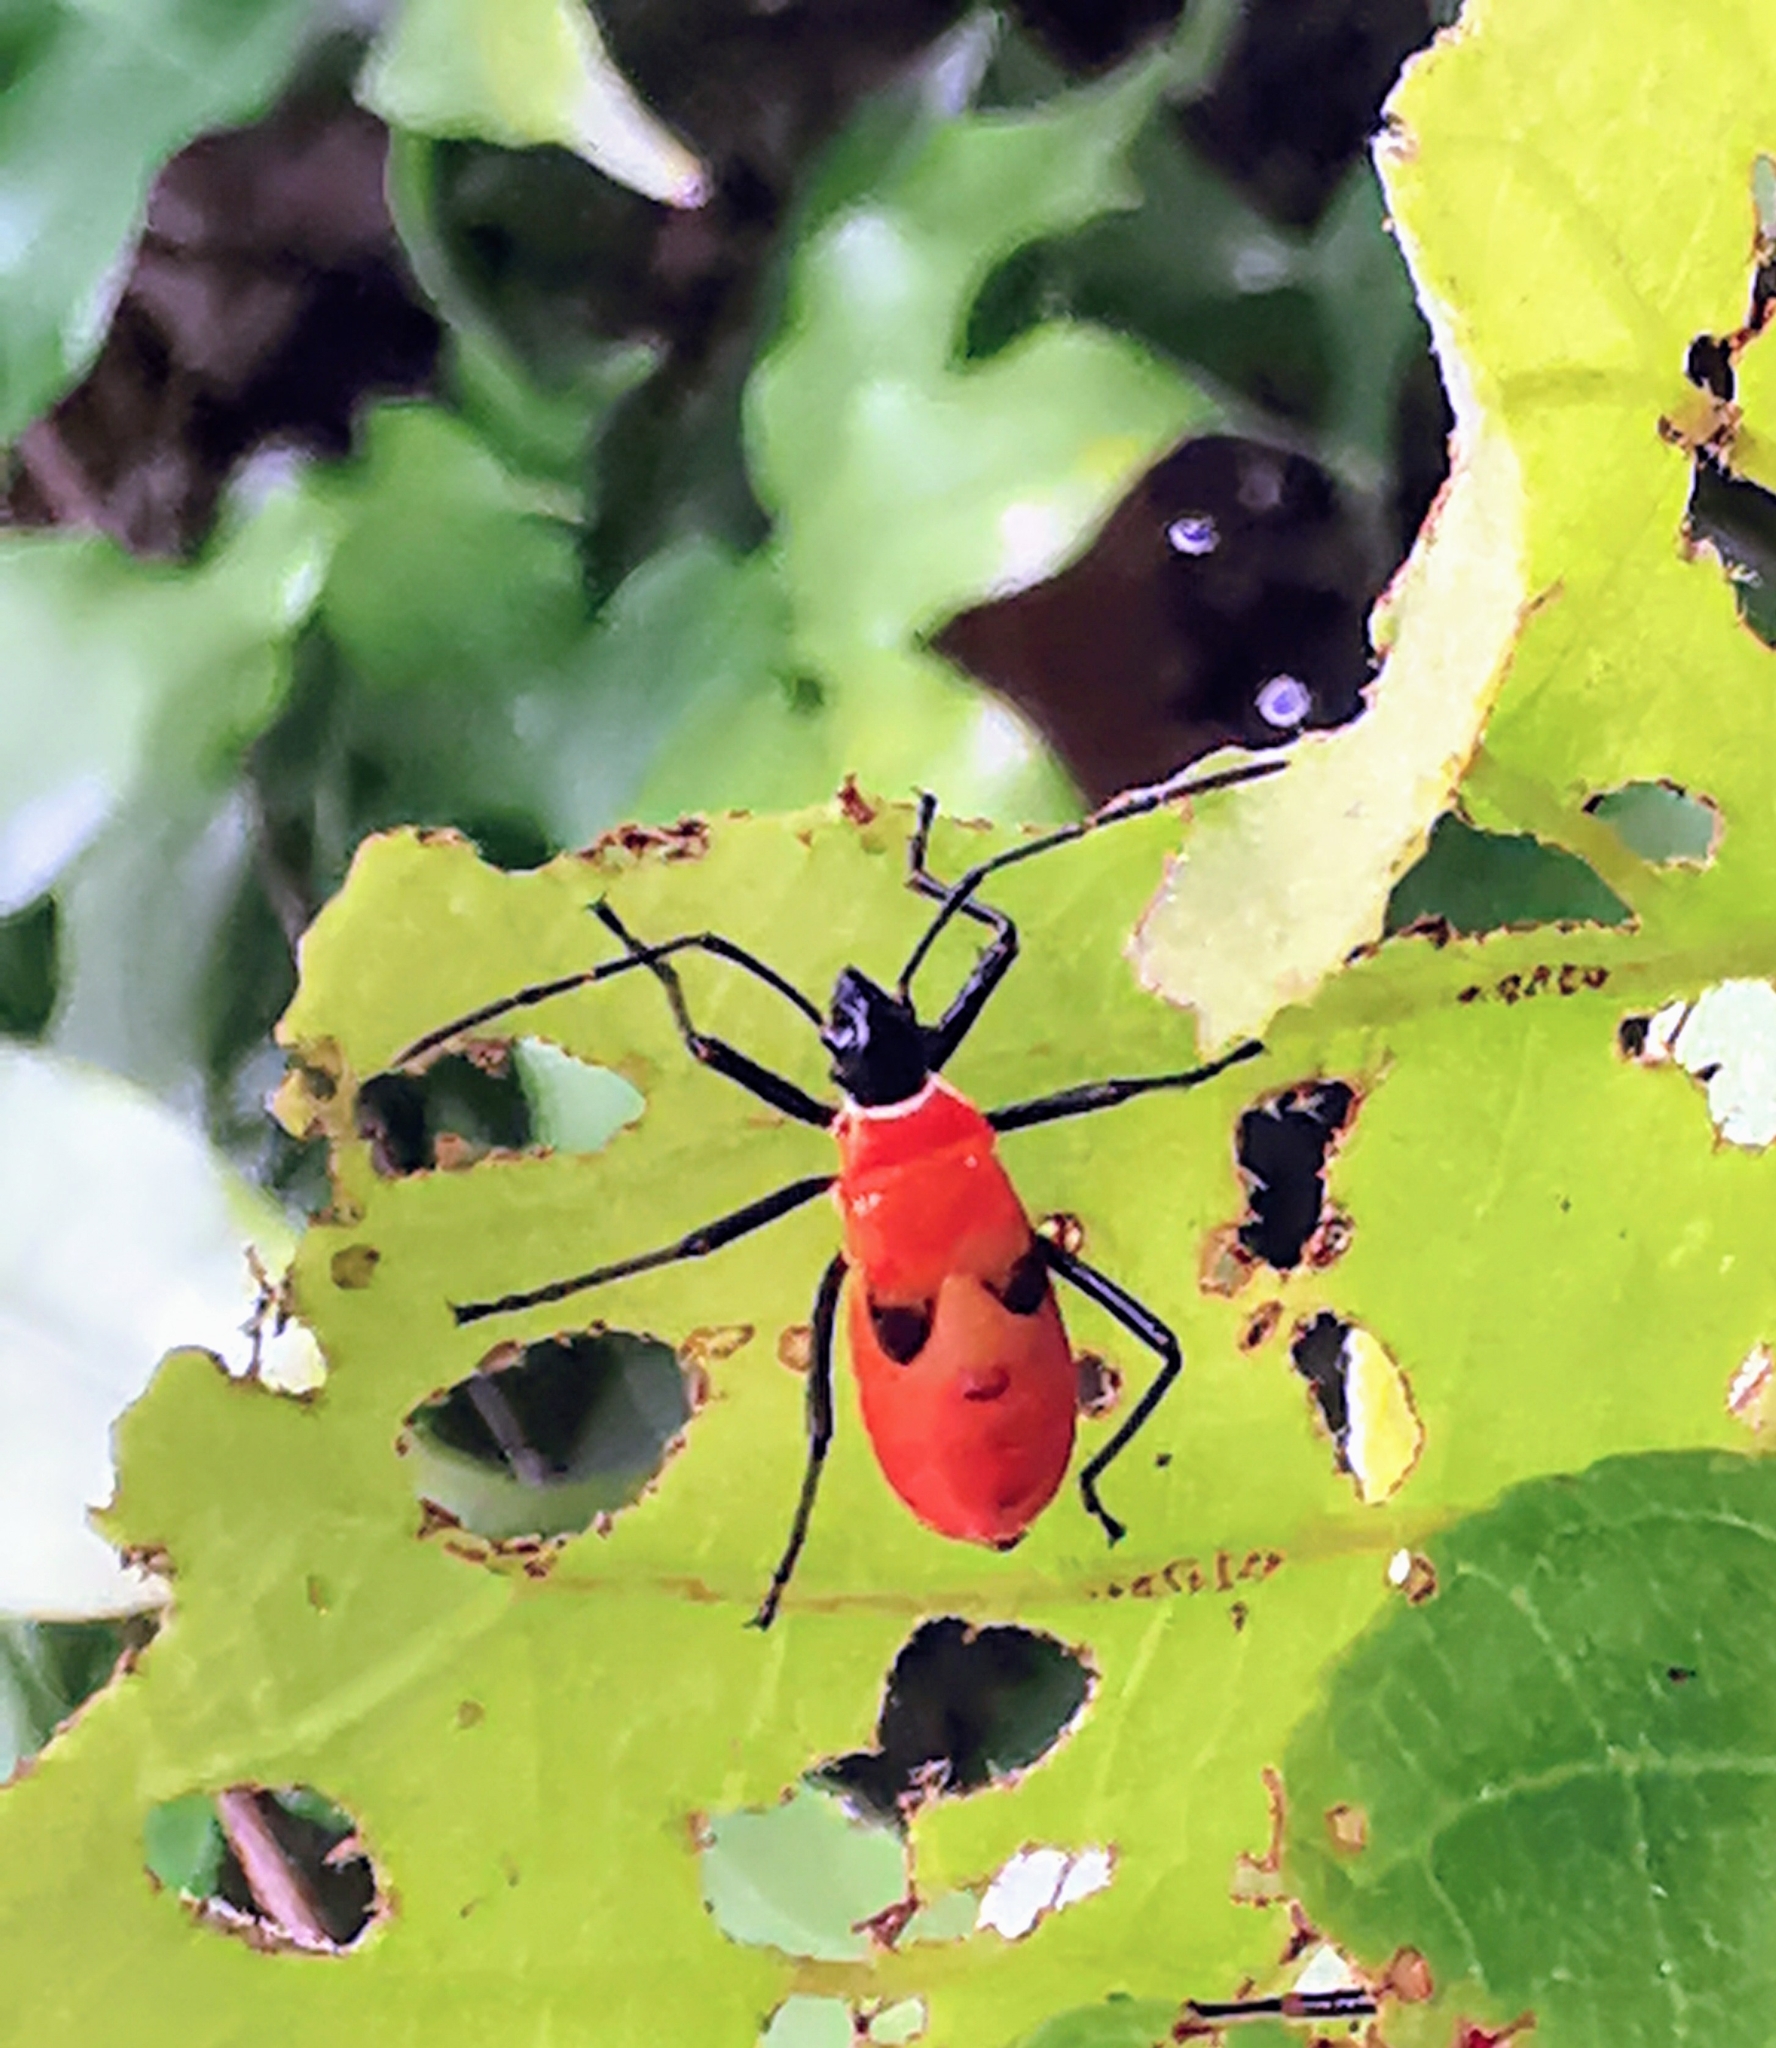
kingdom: Animalia
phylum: Arthropoda
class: Insecta
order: Hemiptera
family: Pyrrhocoridae
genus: Dysdercus
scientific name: Dysdercus decussatus
